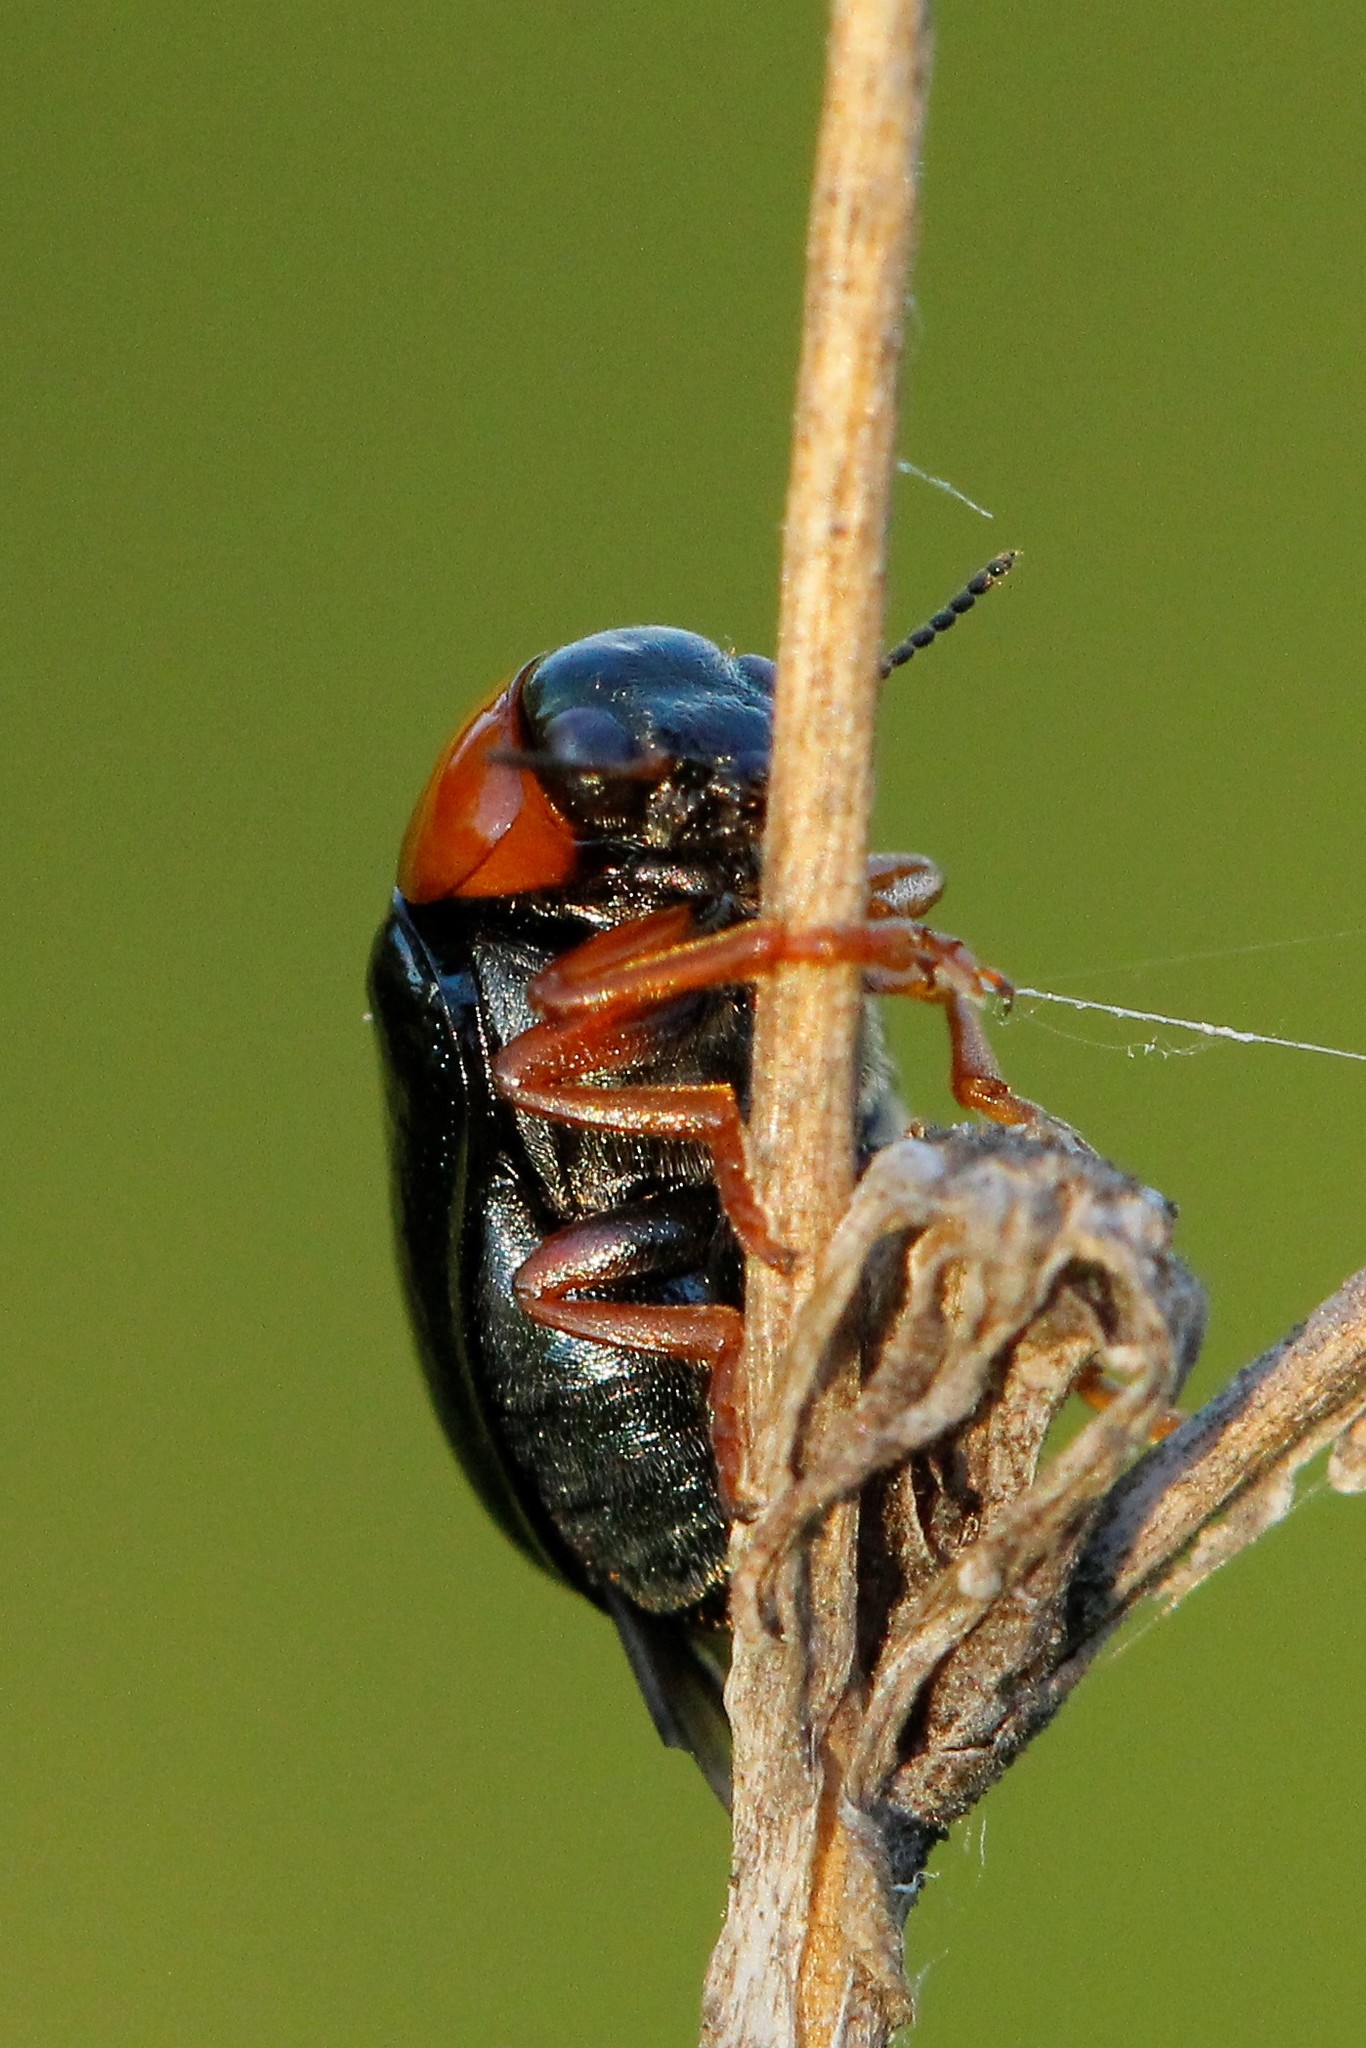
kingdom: Animalia
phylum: Arthropoda
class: Insecta
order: Coleoptera
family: Chrysomelidae
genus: Smaragdina
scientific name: Smaragdina salicina
